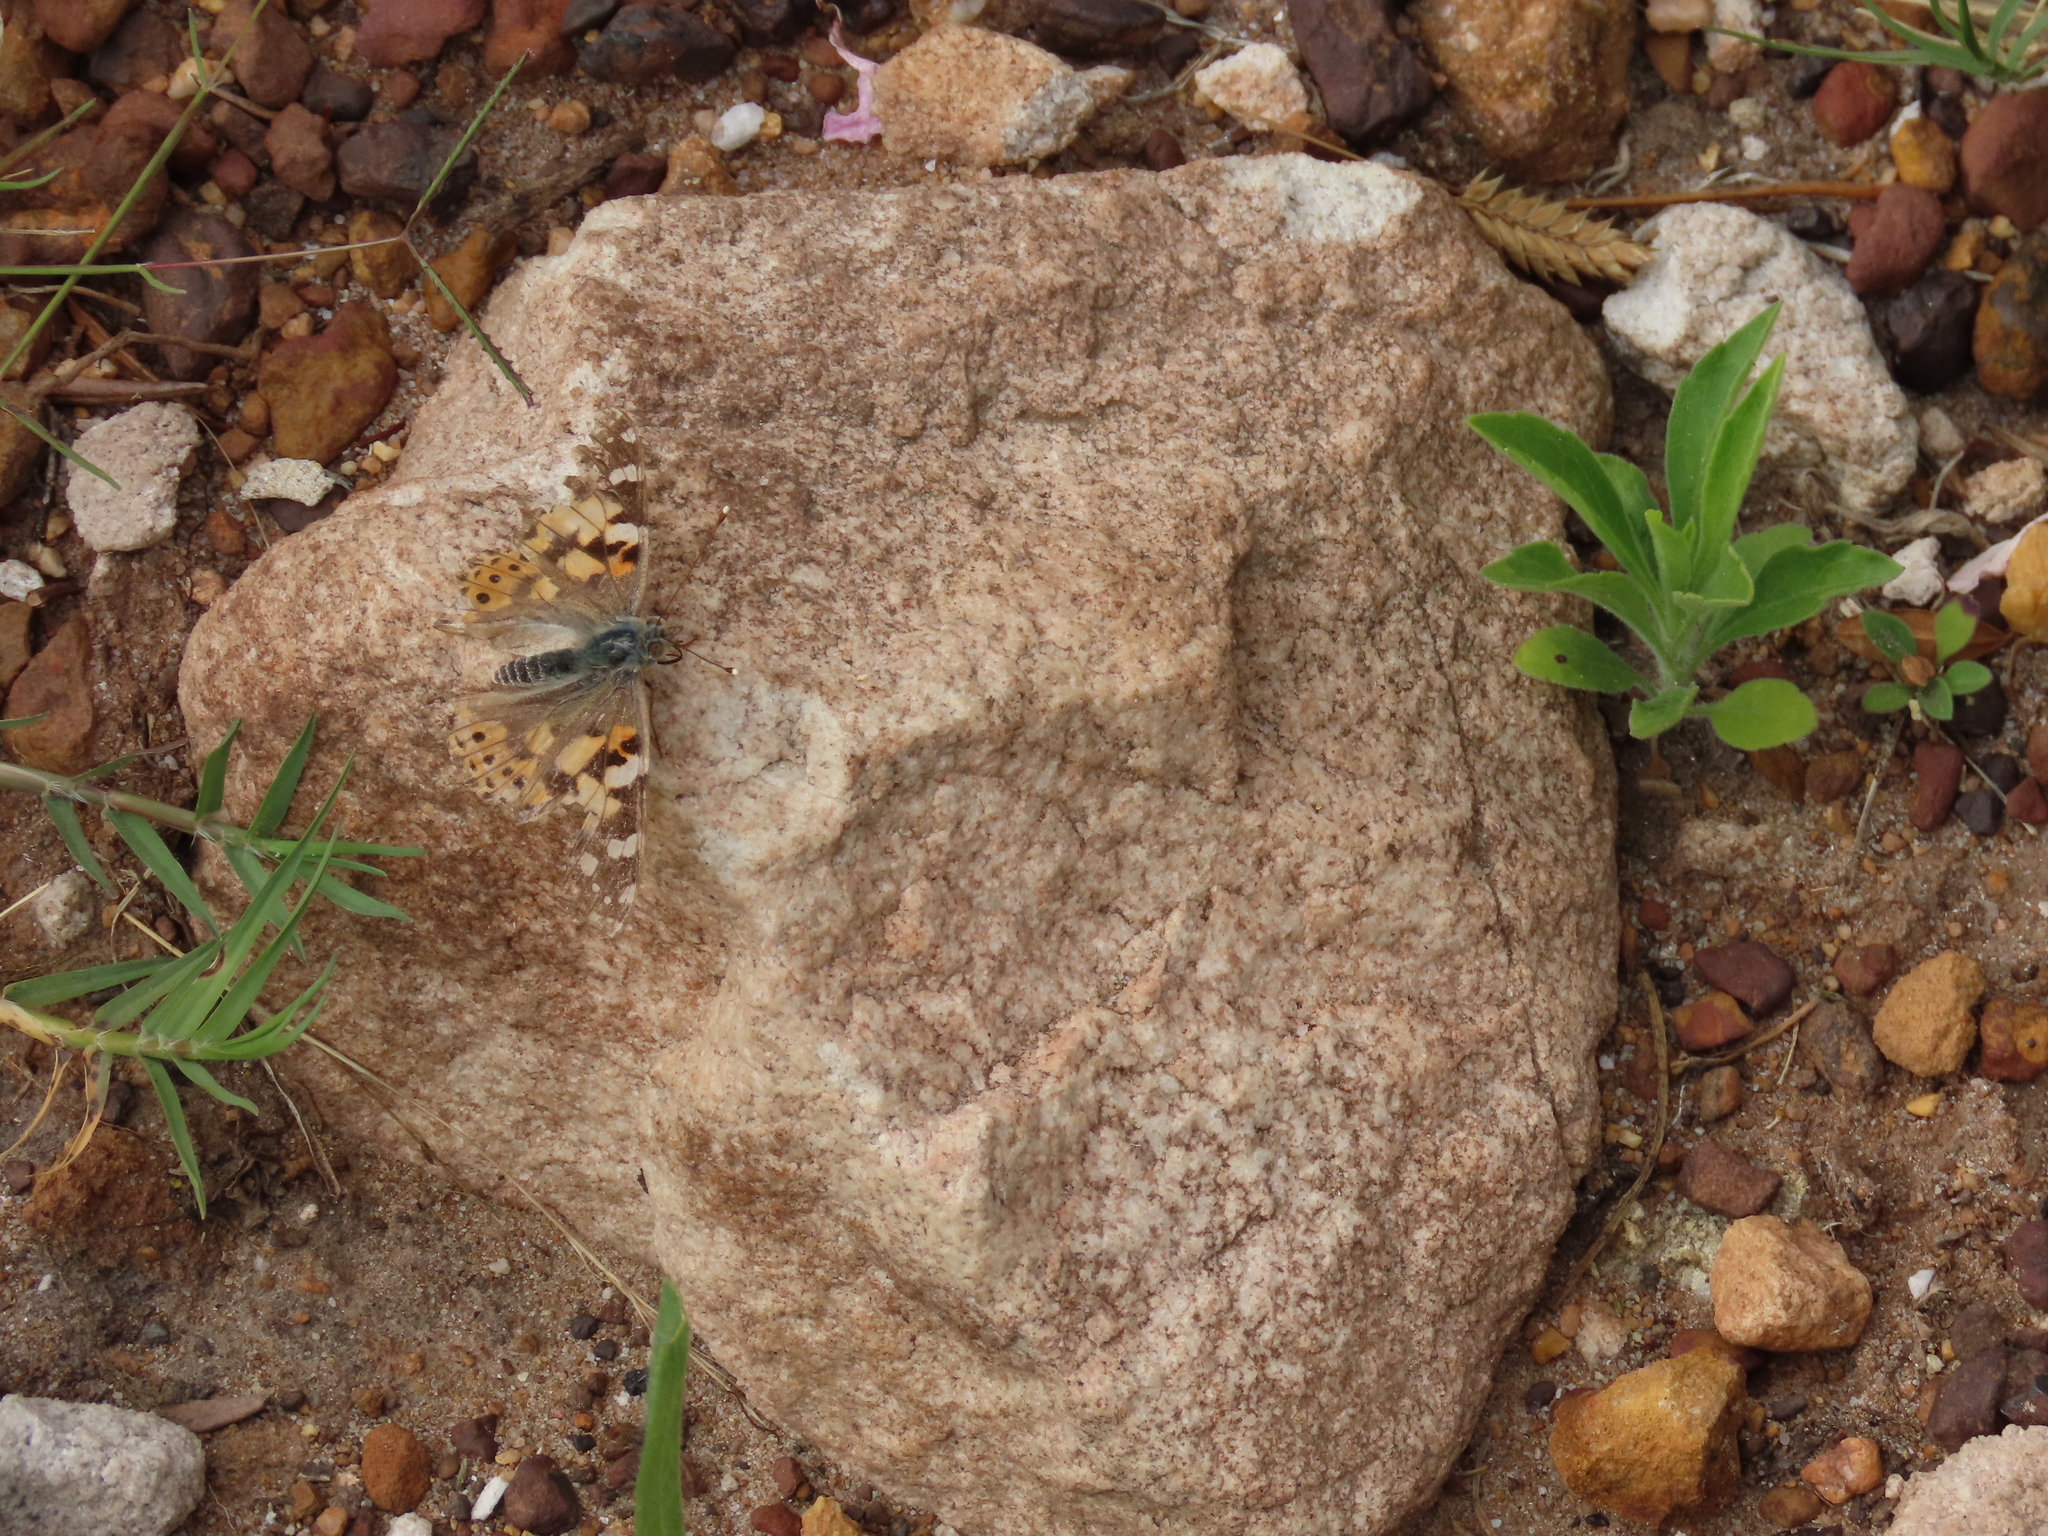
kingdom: Animalia
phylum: Arthropoda
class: Insecta
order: Lepidoptera
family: Nymphalidae
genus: Vanessa
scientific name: Vanessa cardui
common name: Painted lady
